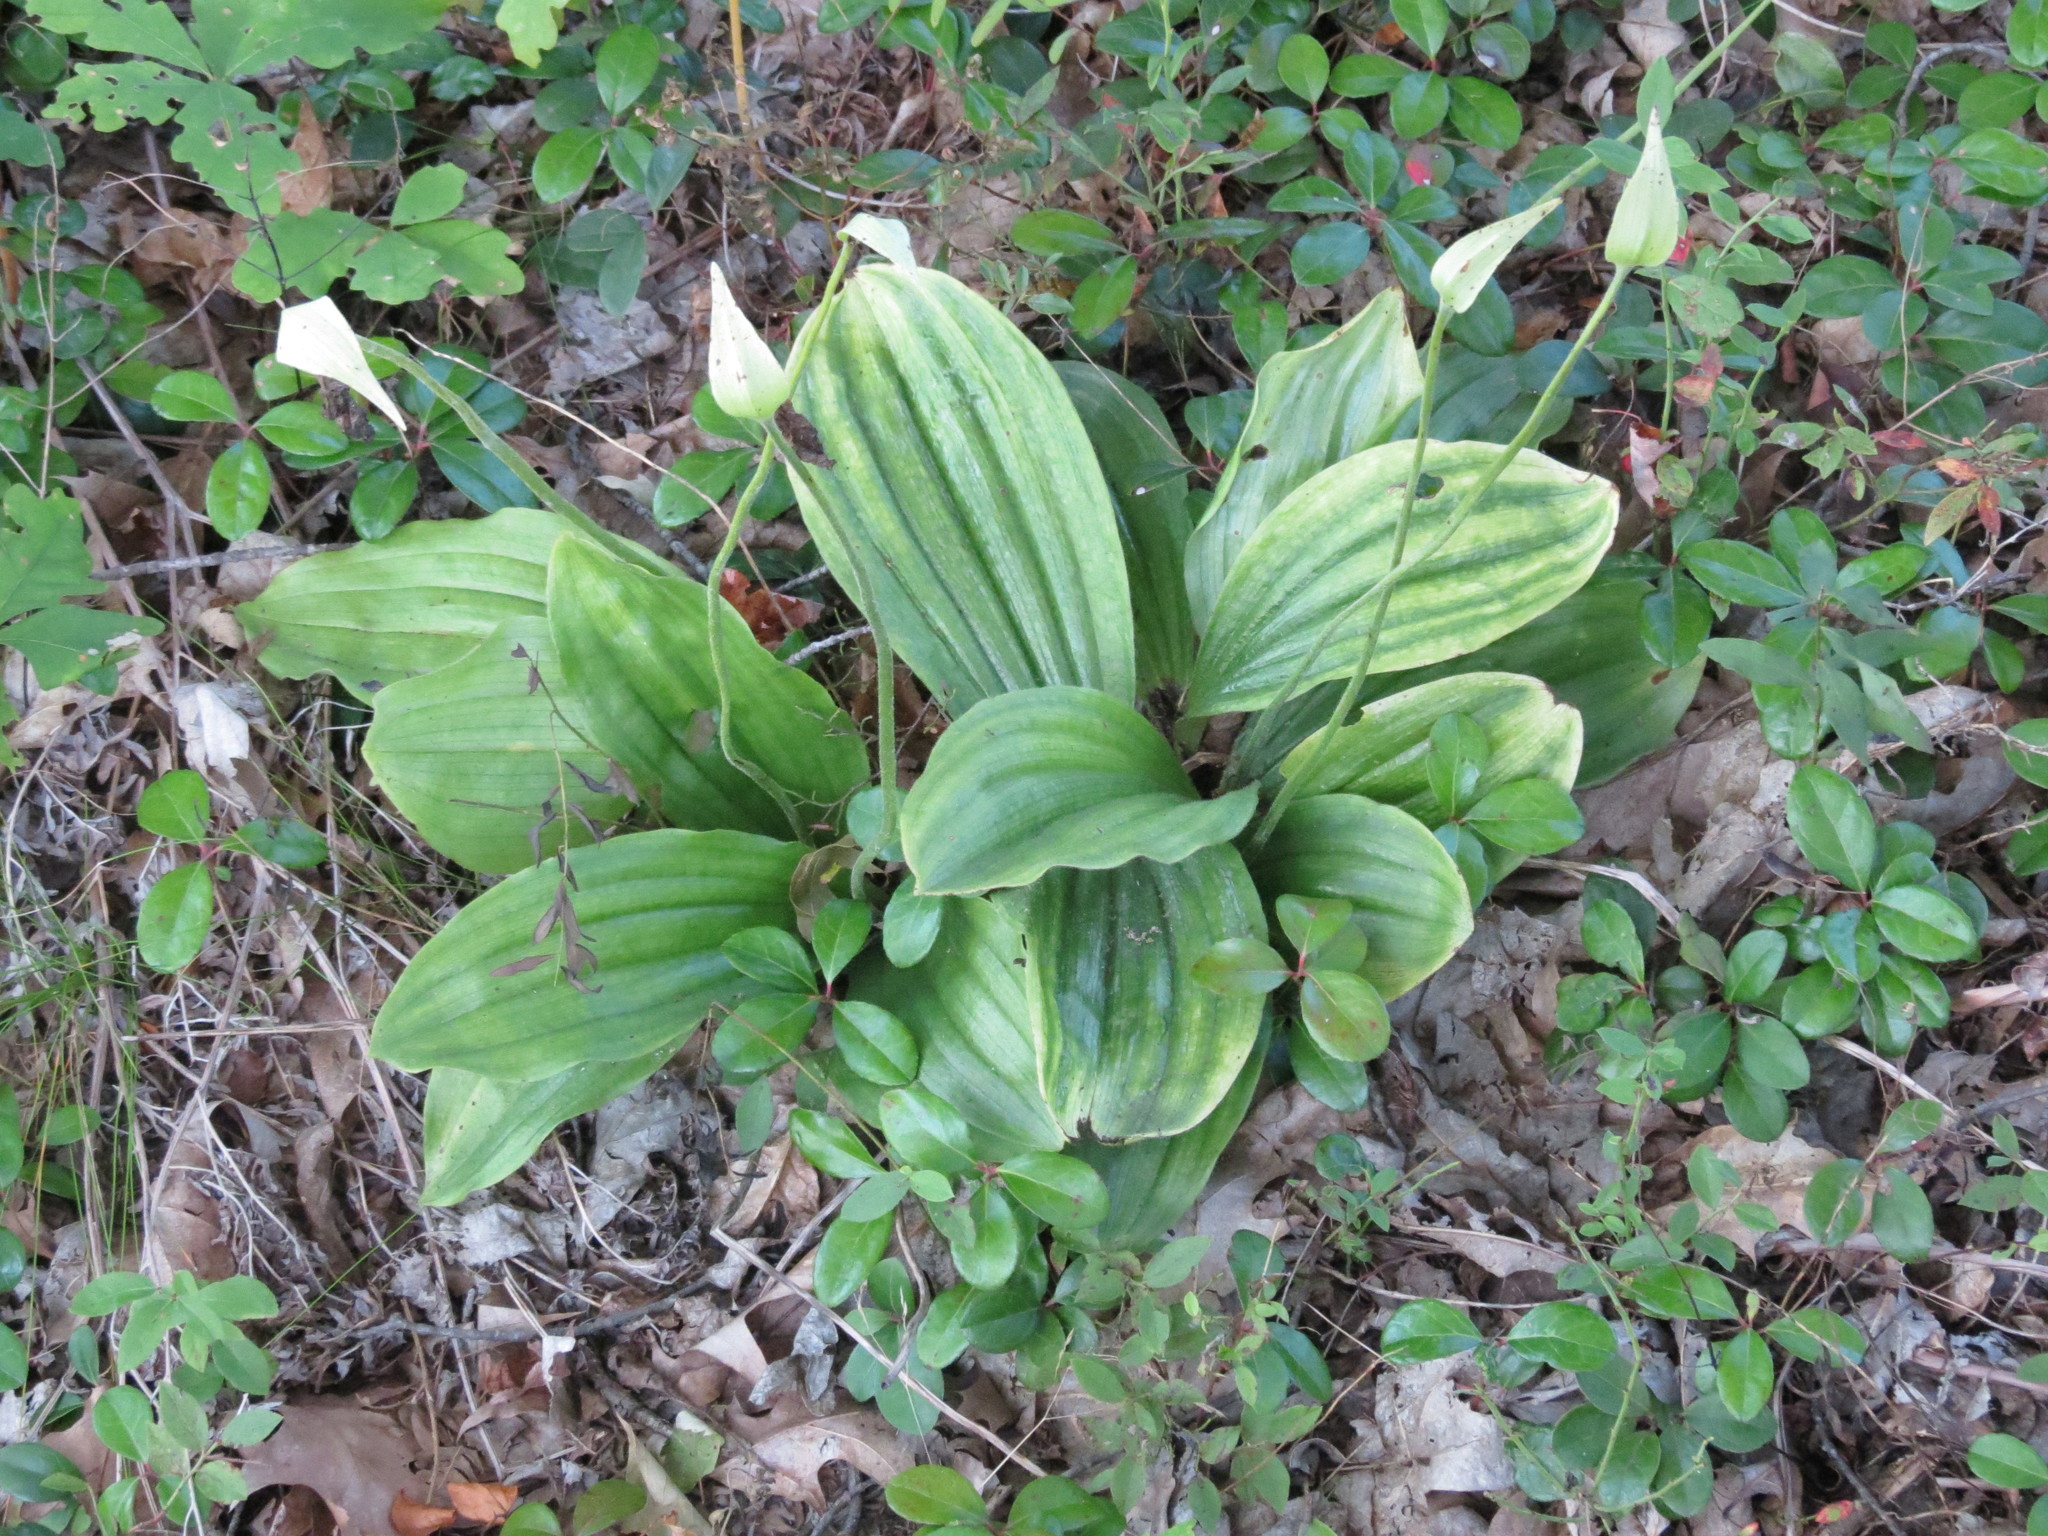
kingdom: Plantae
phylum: Tracheophyta
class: Liliopsida
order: Asparagales
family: Orchidaceae
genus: Cypripedium
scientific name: Cypripedium acaule
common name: Pink lady's-slipper
